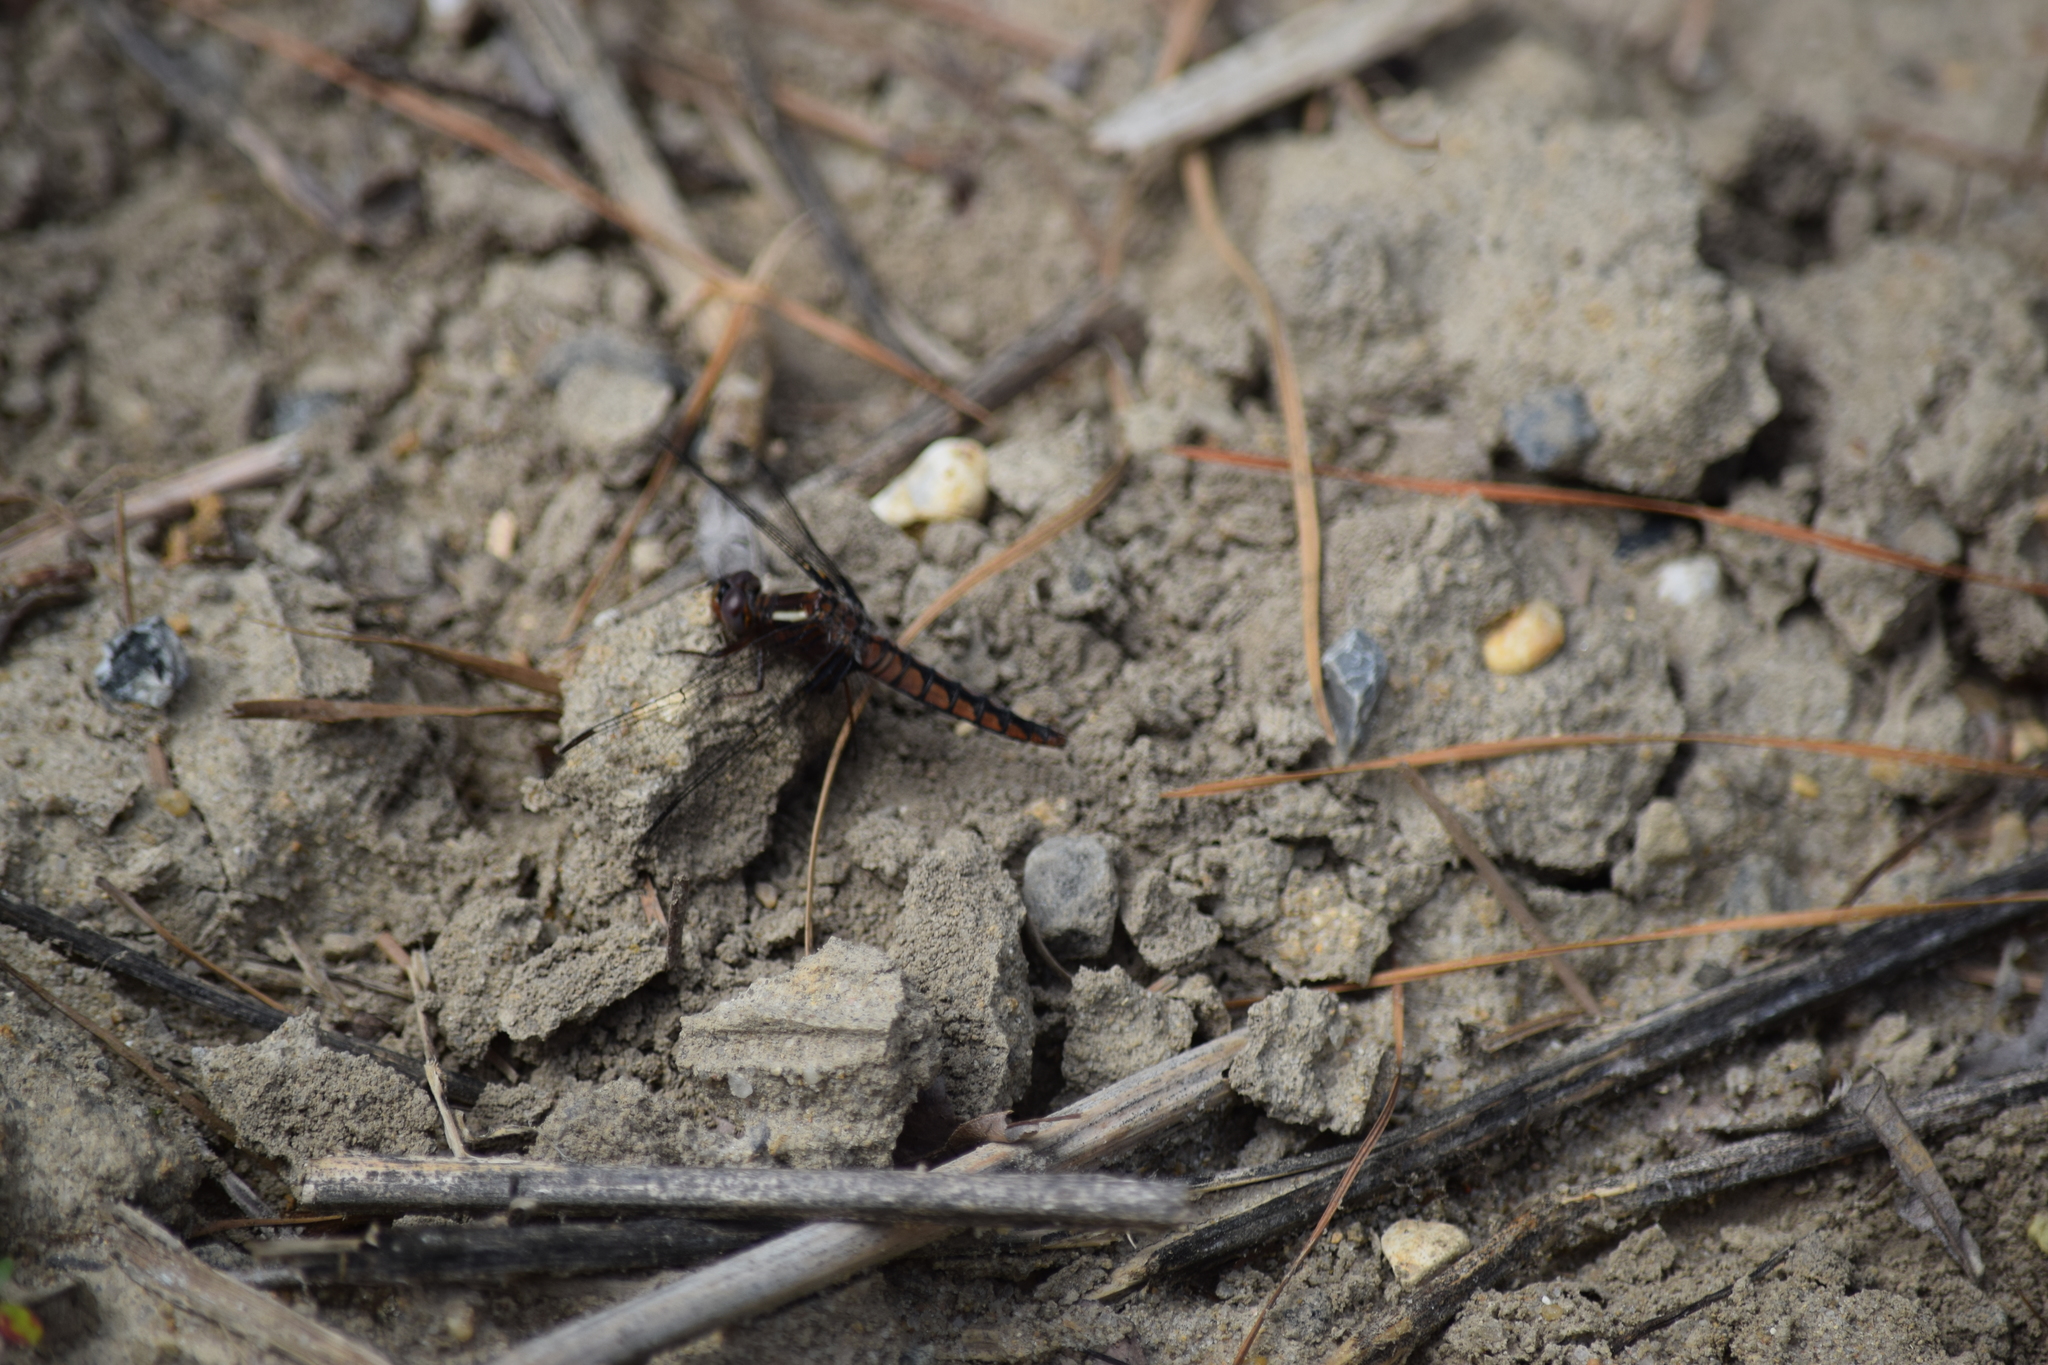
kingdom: Animalia
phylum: Arthropoda
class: Insecta
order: Odonata
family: Libellulidae
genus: Ladona
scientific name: Ladona deplanata
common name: Blue corporal
